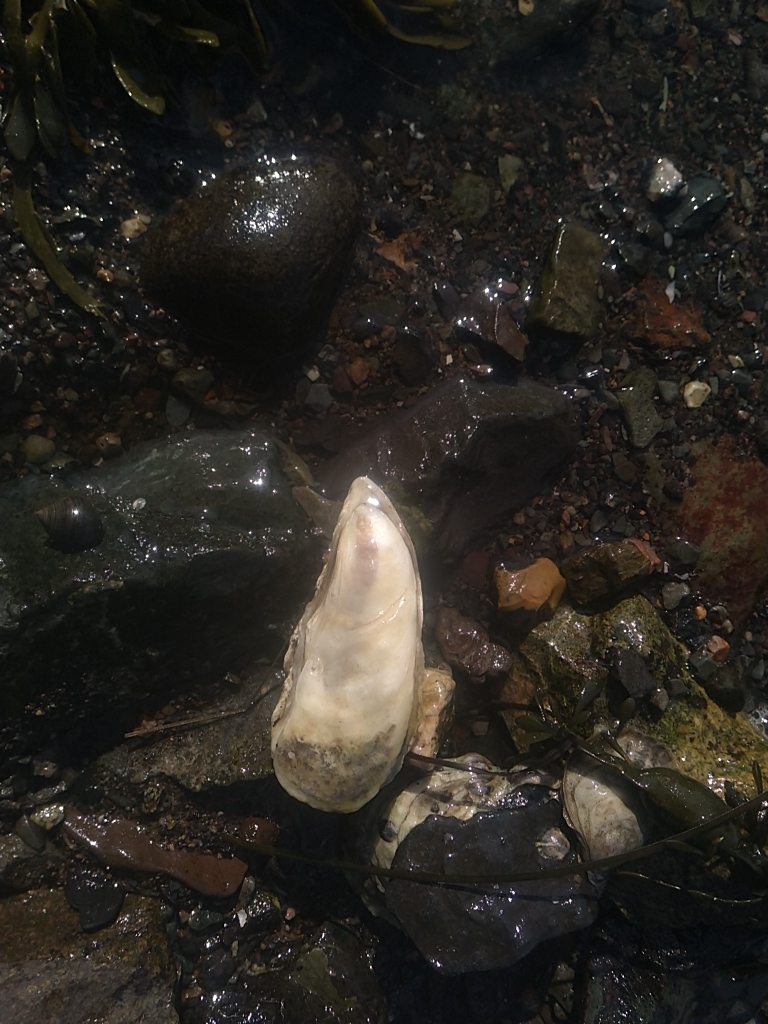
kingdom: Animalia
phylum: Mollusca
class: Bivalvia
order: Ostreida
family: Ostreidae
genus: Crassostrea
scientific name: Crassostrea virginica
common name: American oyster
